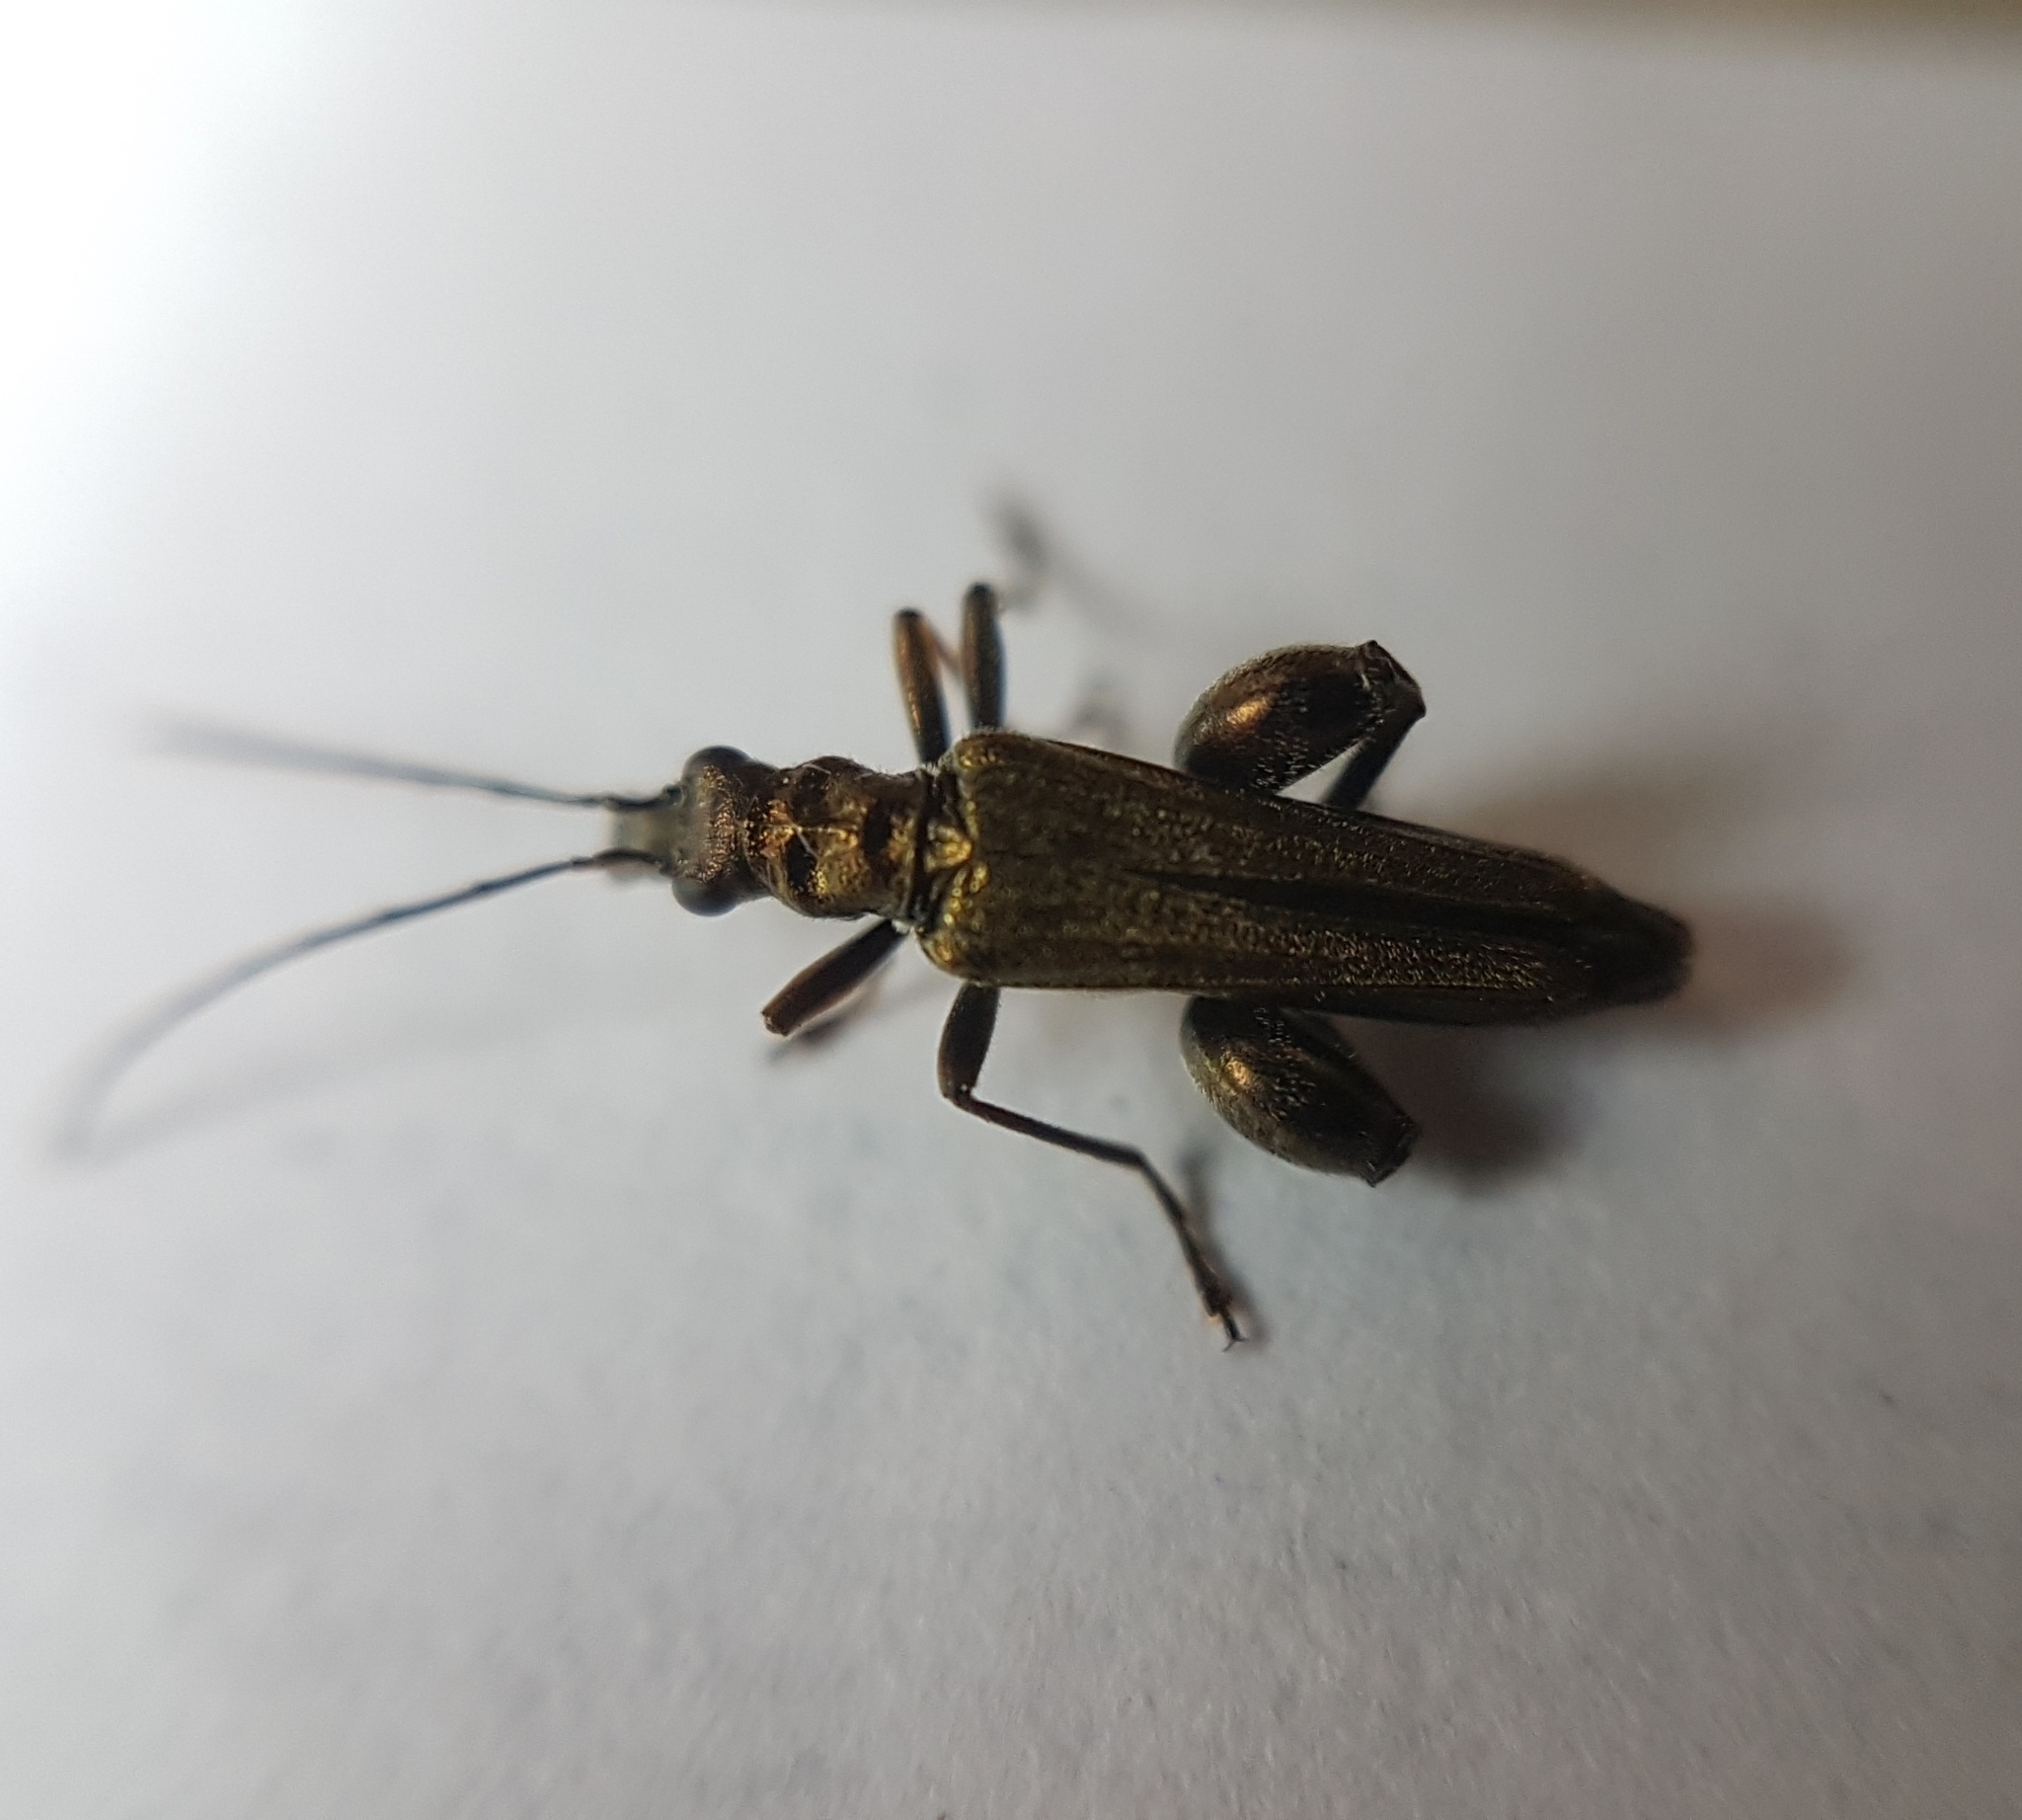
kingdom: Animalia
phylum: Arthropoda
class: Insecta
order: Coleoptera
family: Oedemeridae
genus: Oedemera
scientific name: Oedemera flavipes
